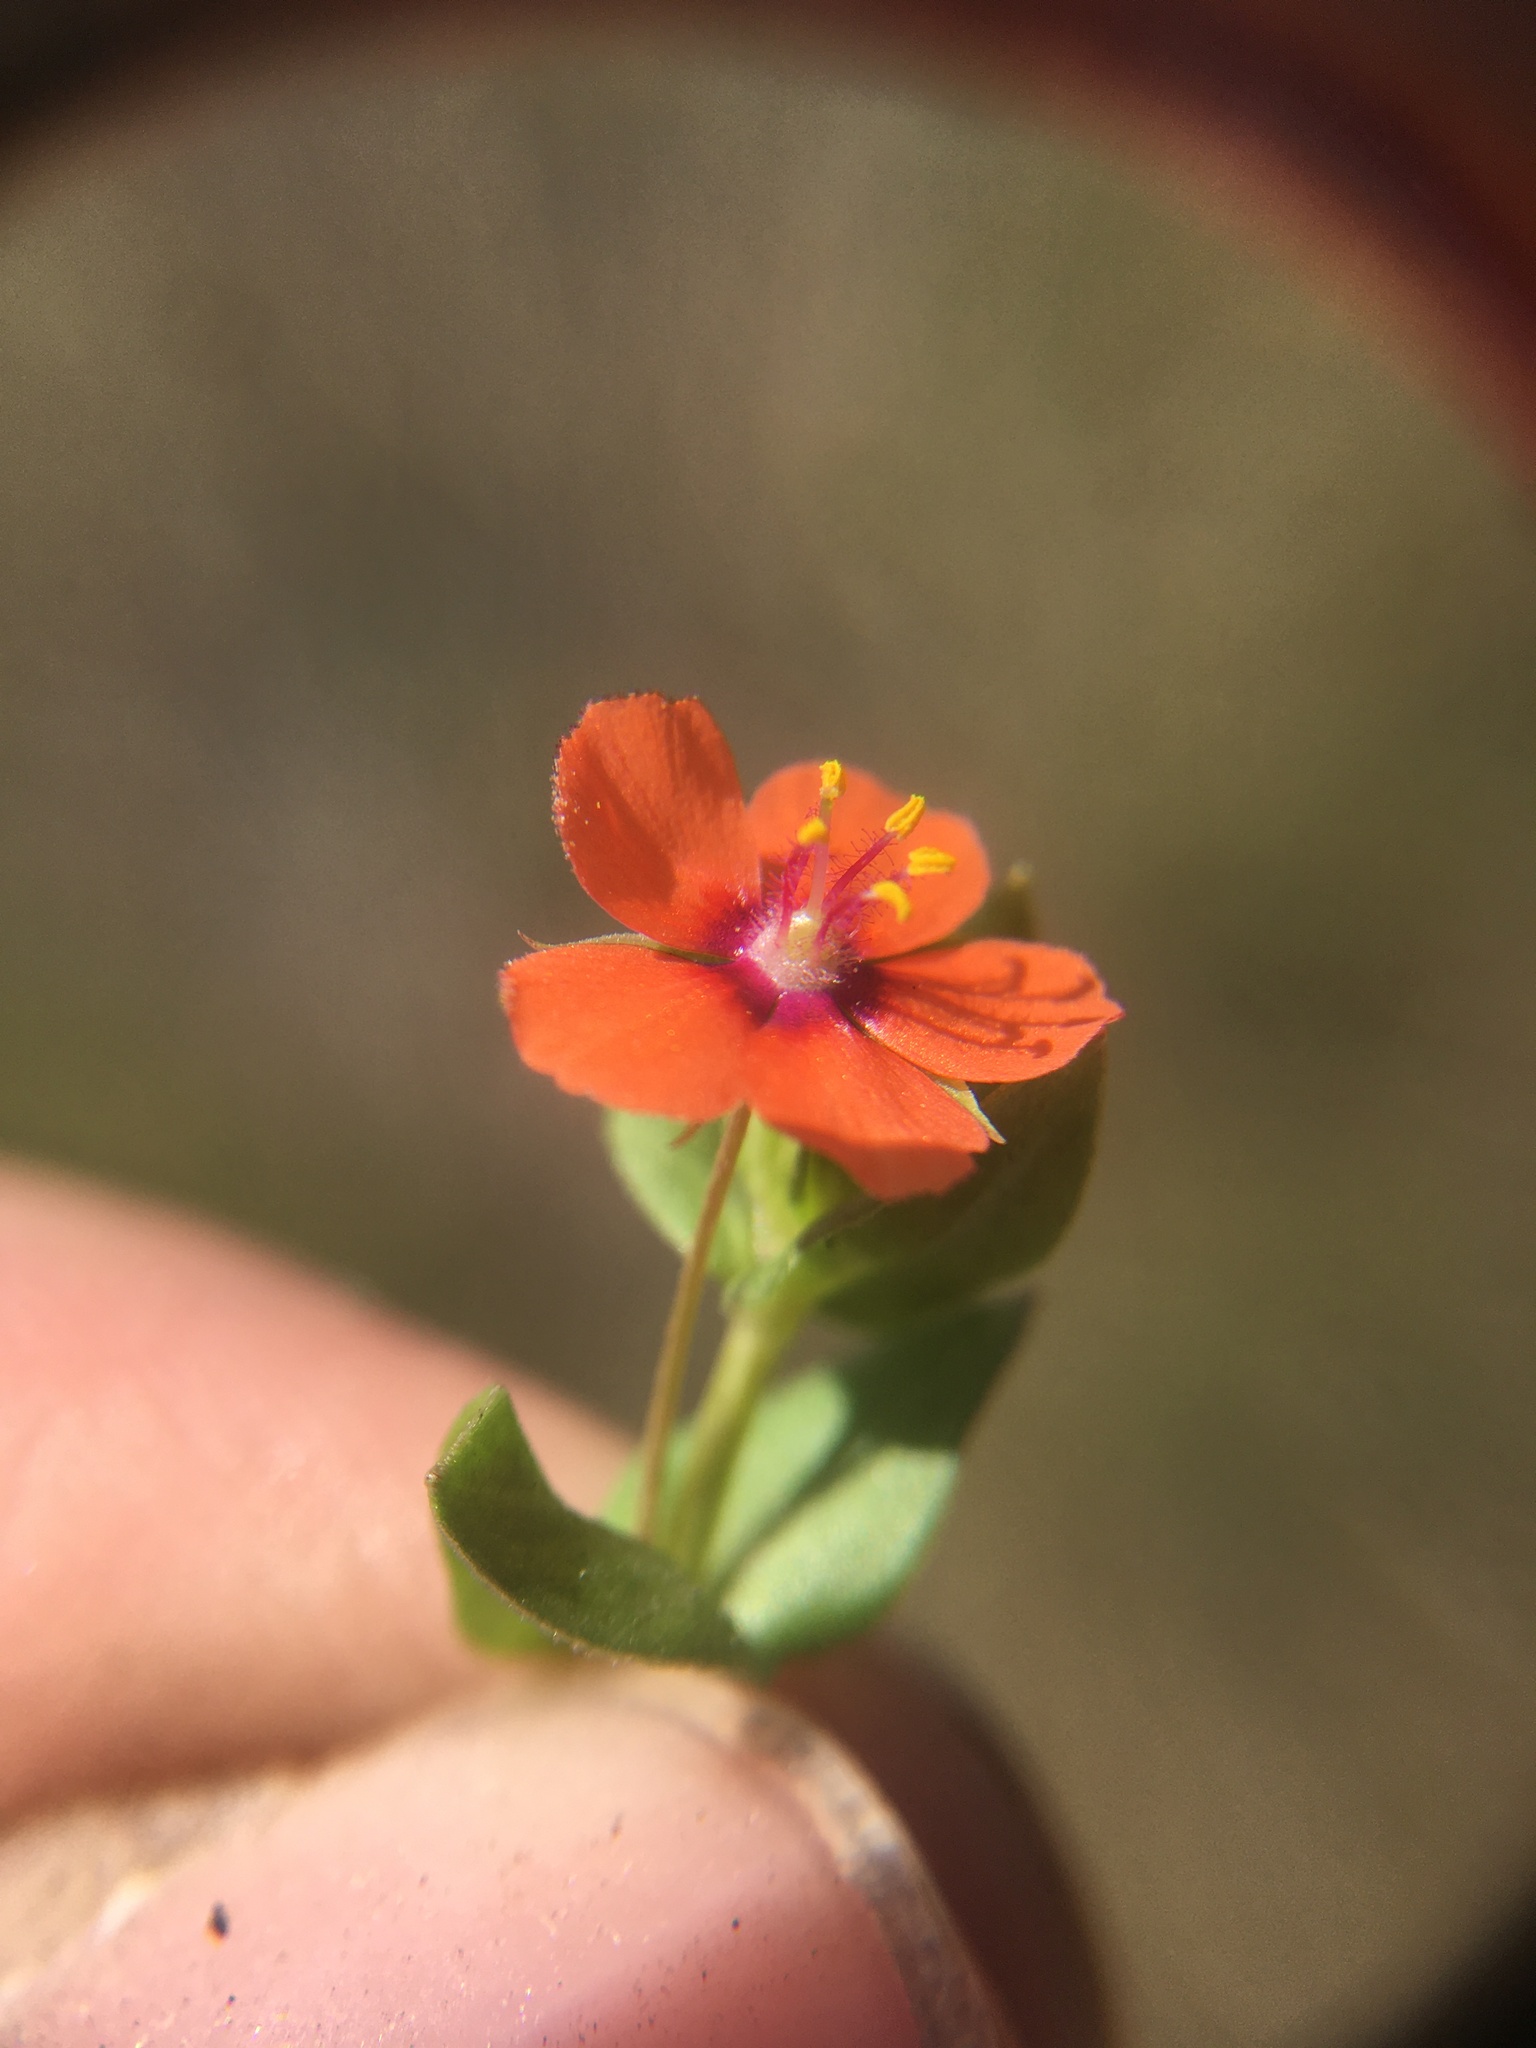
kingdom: Plantae
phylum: Tracheophyta
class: Magnoliopsida
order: Ericales
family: Primulaceae
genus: Lysimachia
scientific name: Lysimachia arvensis
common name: Scarlet pimpernel
